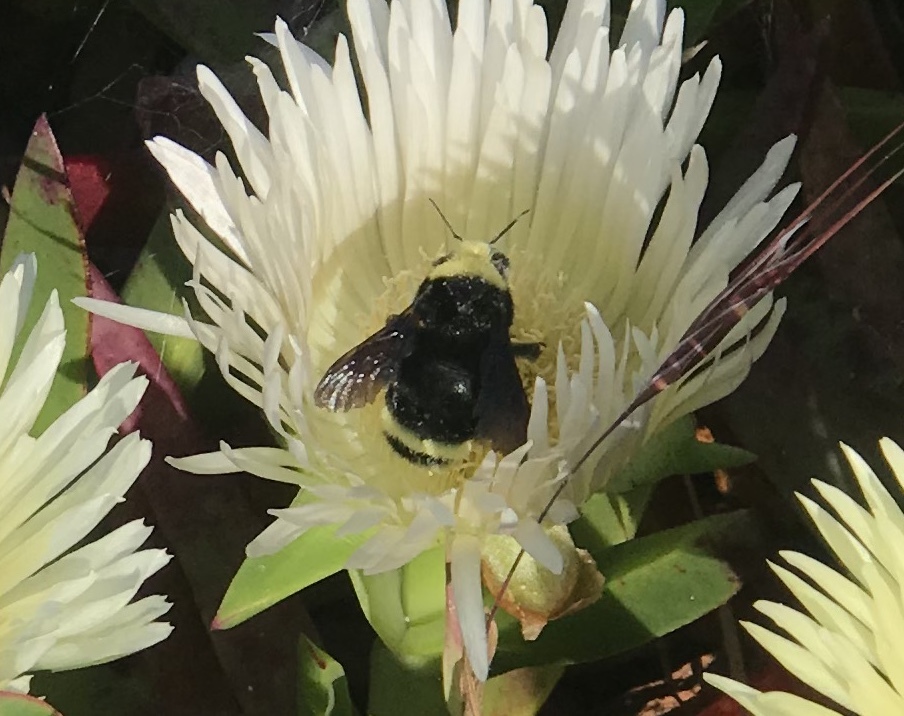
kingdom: Animalia
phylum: Arthropoda
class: Insecta
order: Hymenoptera
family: Apidae
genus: Bombus
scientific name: Bombus vosnesenskii
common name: Vosnesensky bumble bee
